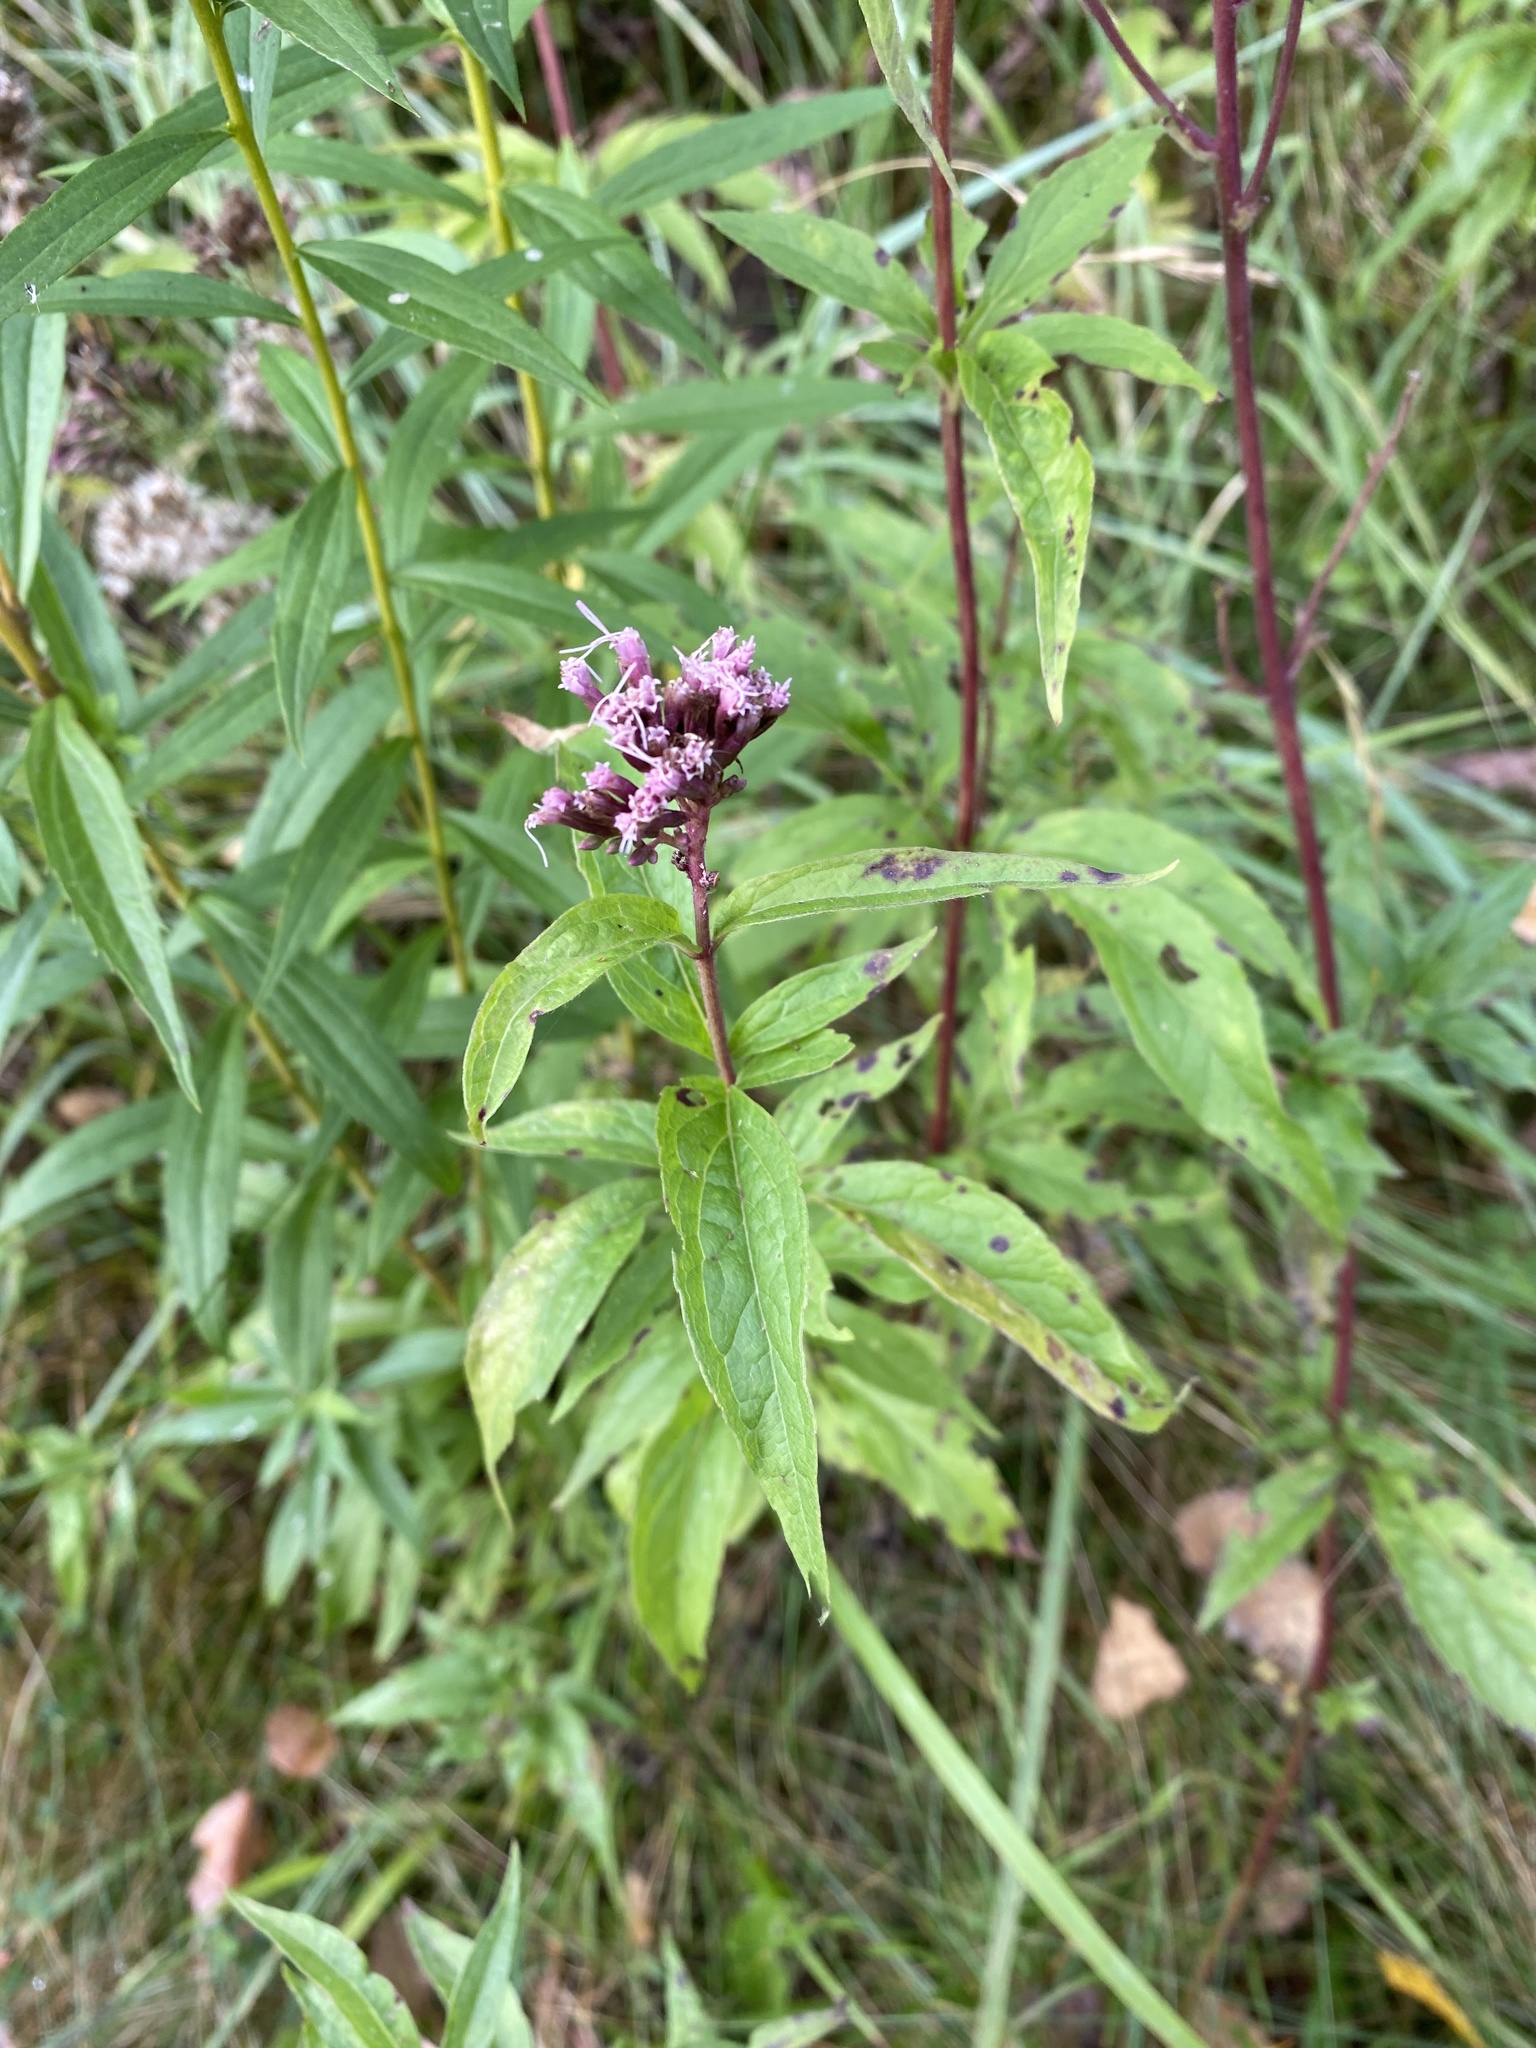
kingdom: Plantae
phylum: Tracheophyta
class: Magnoliopsida
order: Asterales
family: Asteraceae
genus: Eupatorium
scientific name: Eupatorium cannabinum
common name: Hemp-agrimony
